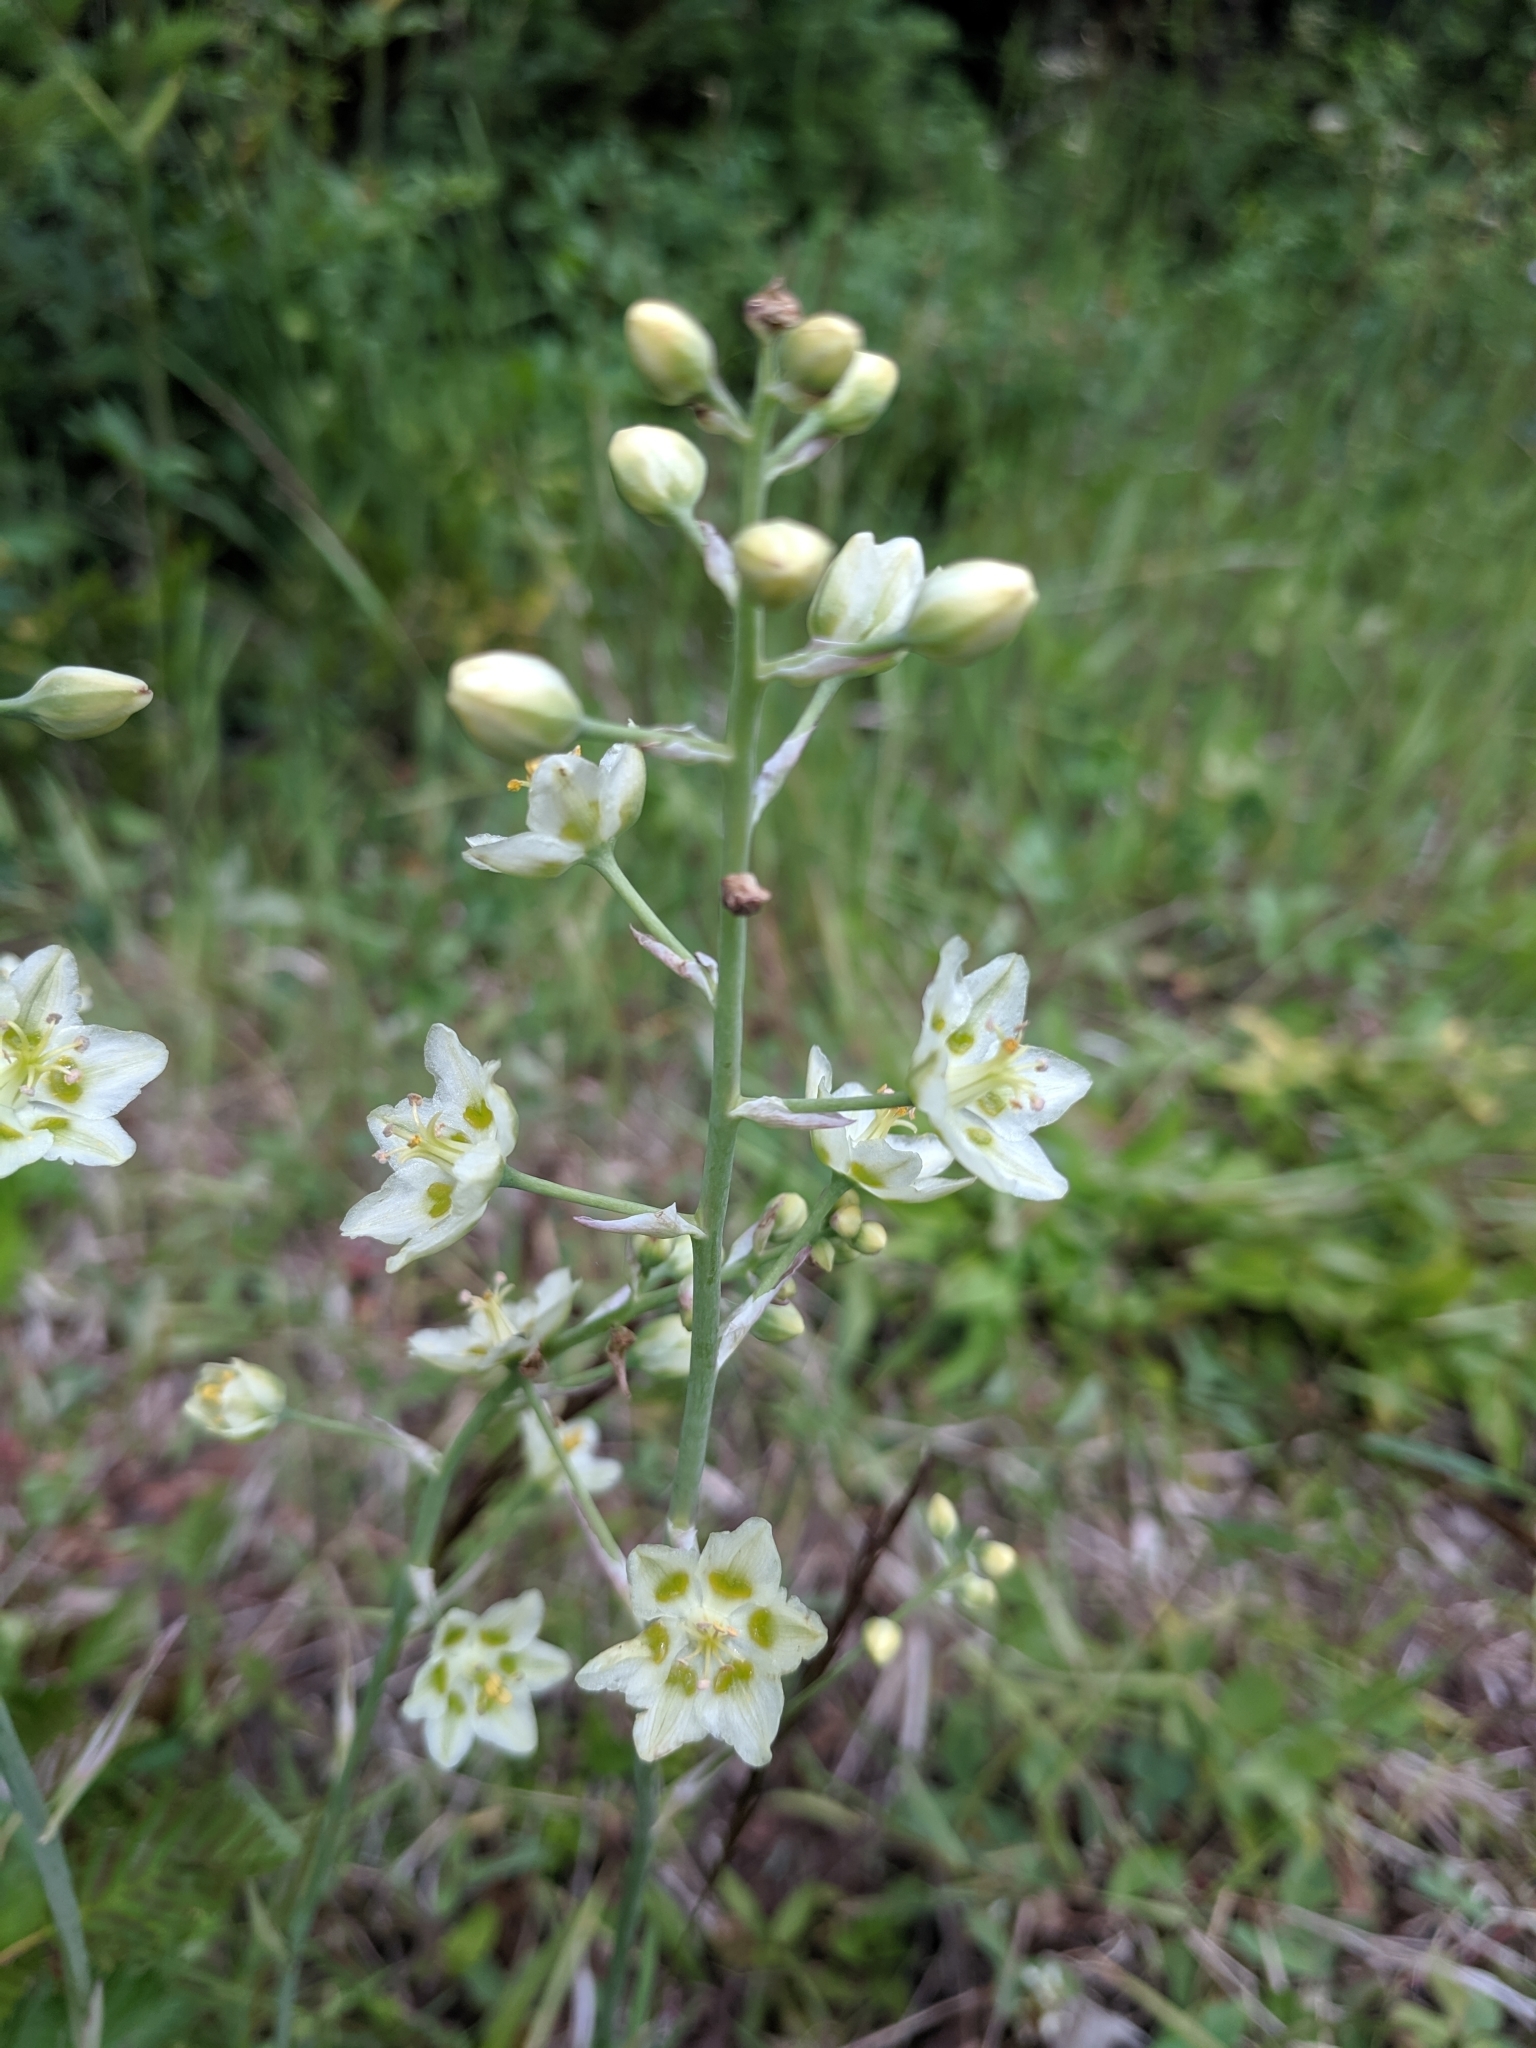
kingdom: Plantae
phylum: Tracheophyta
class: Liliopsida
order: Liliales
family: Melanthiaceae
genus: Anticlea
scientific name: Anticlea elegans
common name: Mountain death camas
